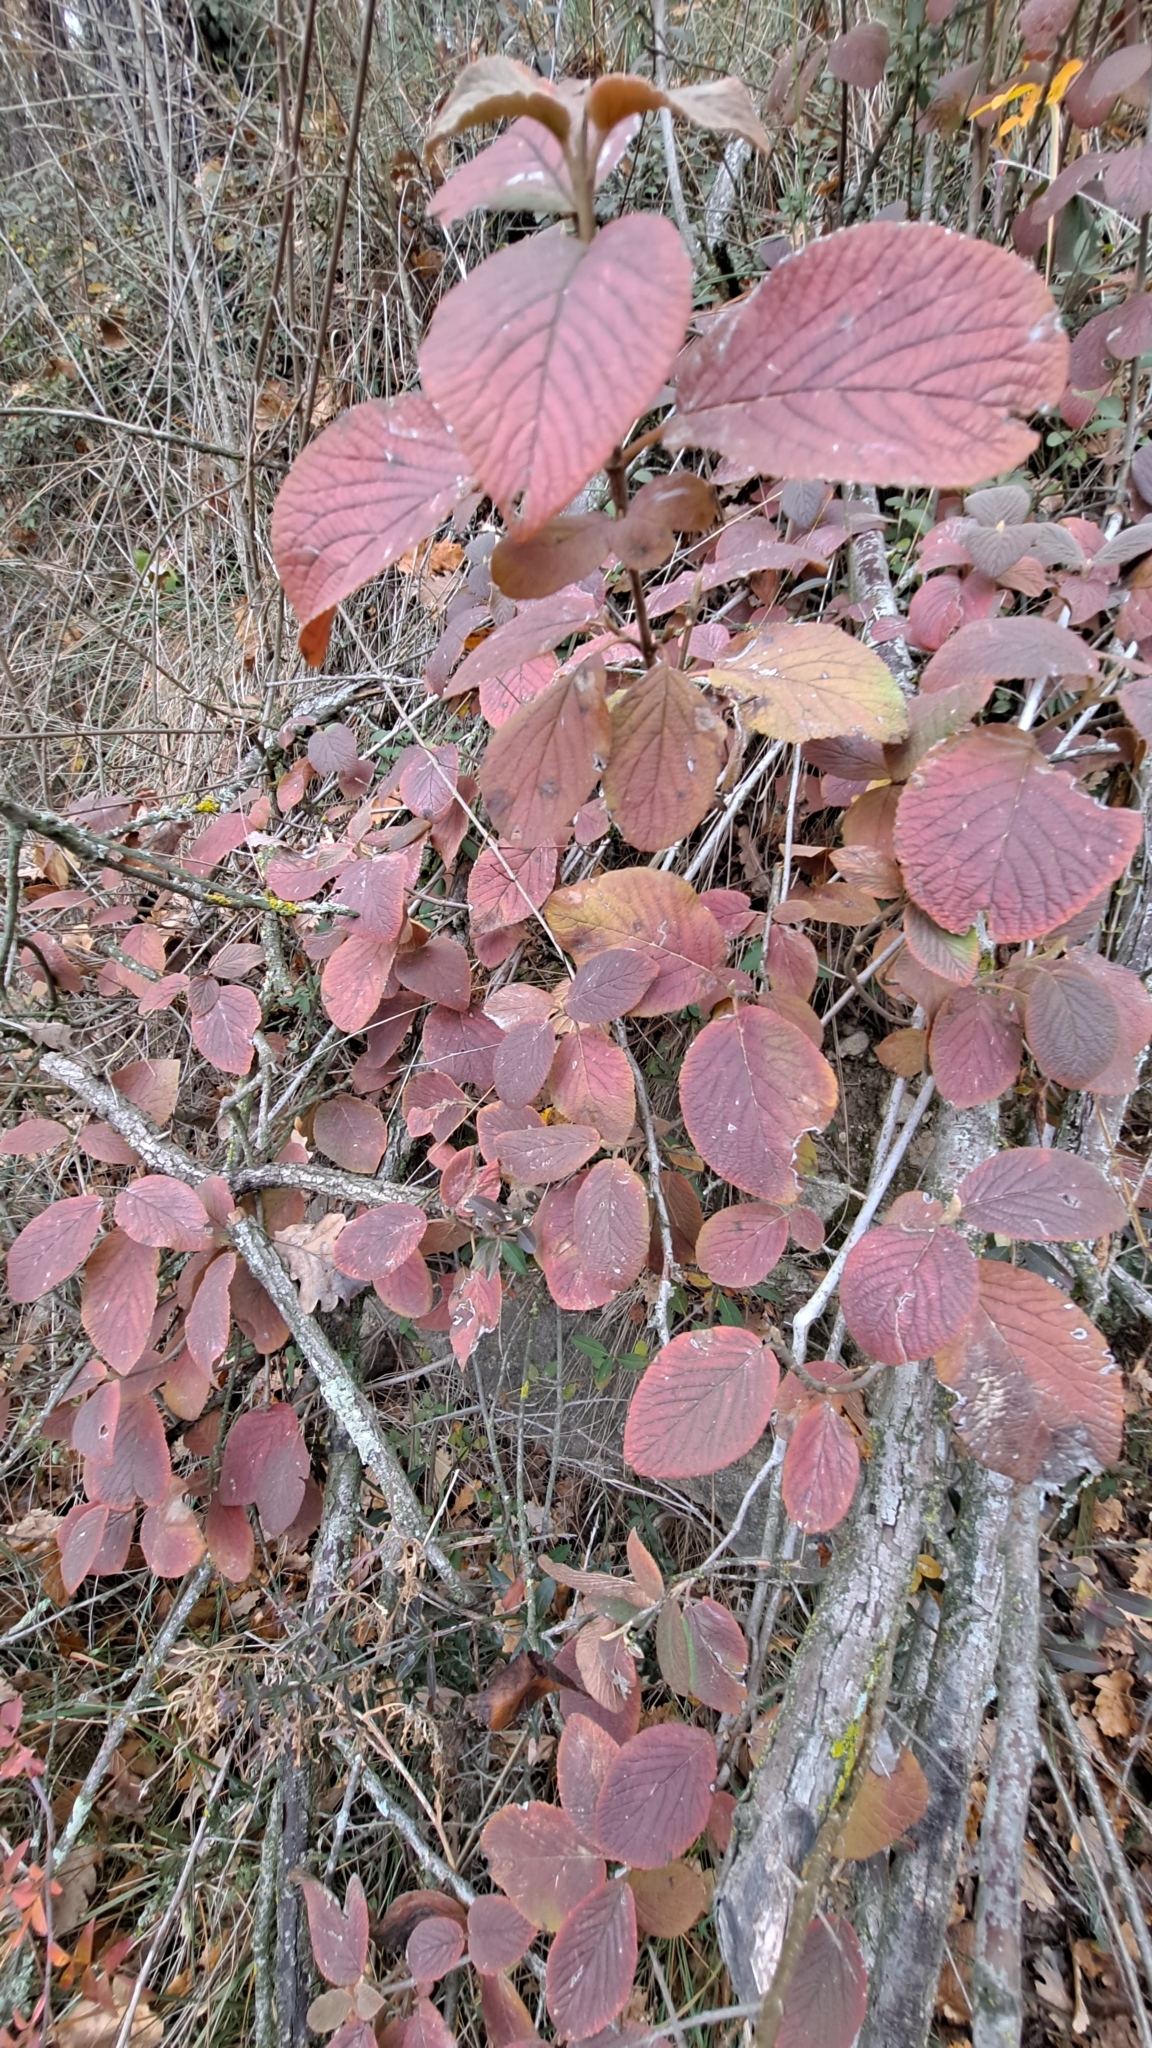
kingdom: Plantae
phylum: Tracheophyta
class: Magnoliopsida
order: Dipsacales
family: Viburnaceae
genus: Viburnum
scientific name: Viburnum lantana
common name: Wayfaring tree
